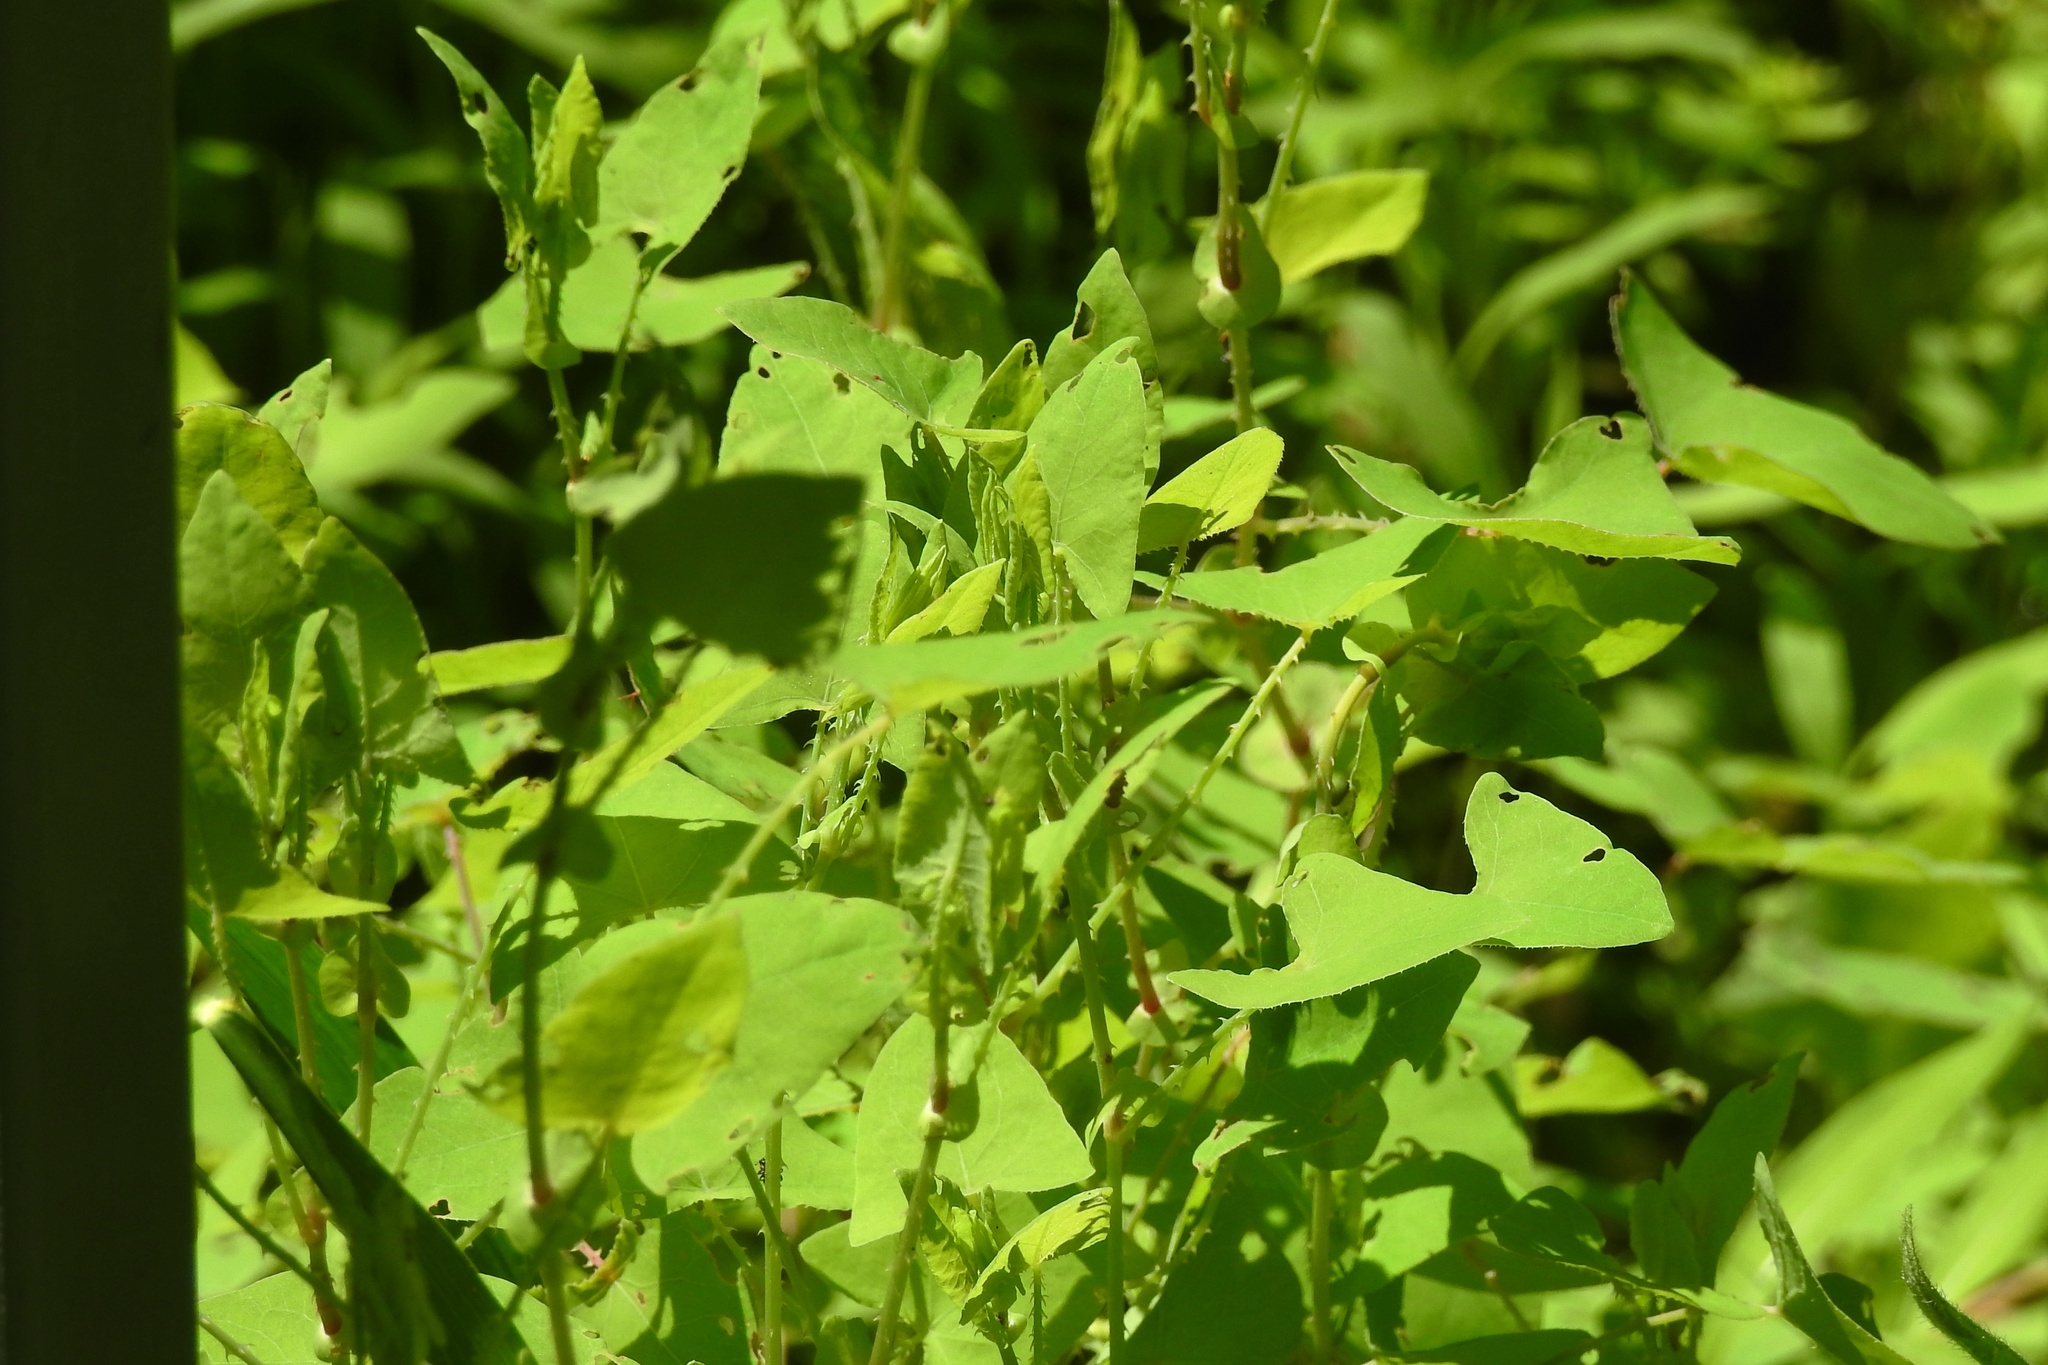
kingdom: Plantae
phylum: Tracheophyta
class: Magnoliopsida
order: Caryophyllales
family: Polygonaceae
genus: Persicaria
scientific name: Persicaria perfoliata
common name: Asiatic tearthumb
